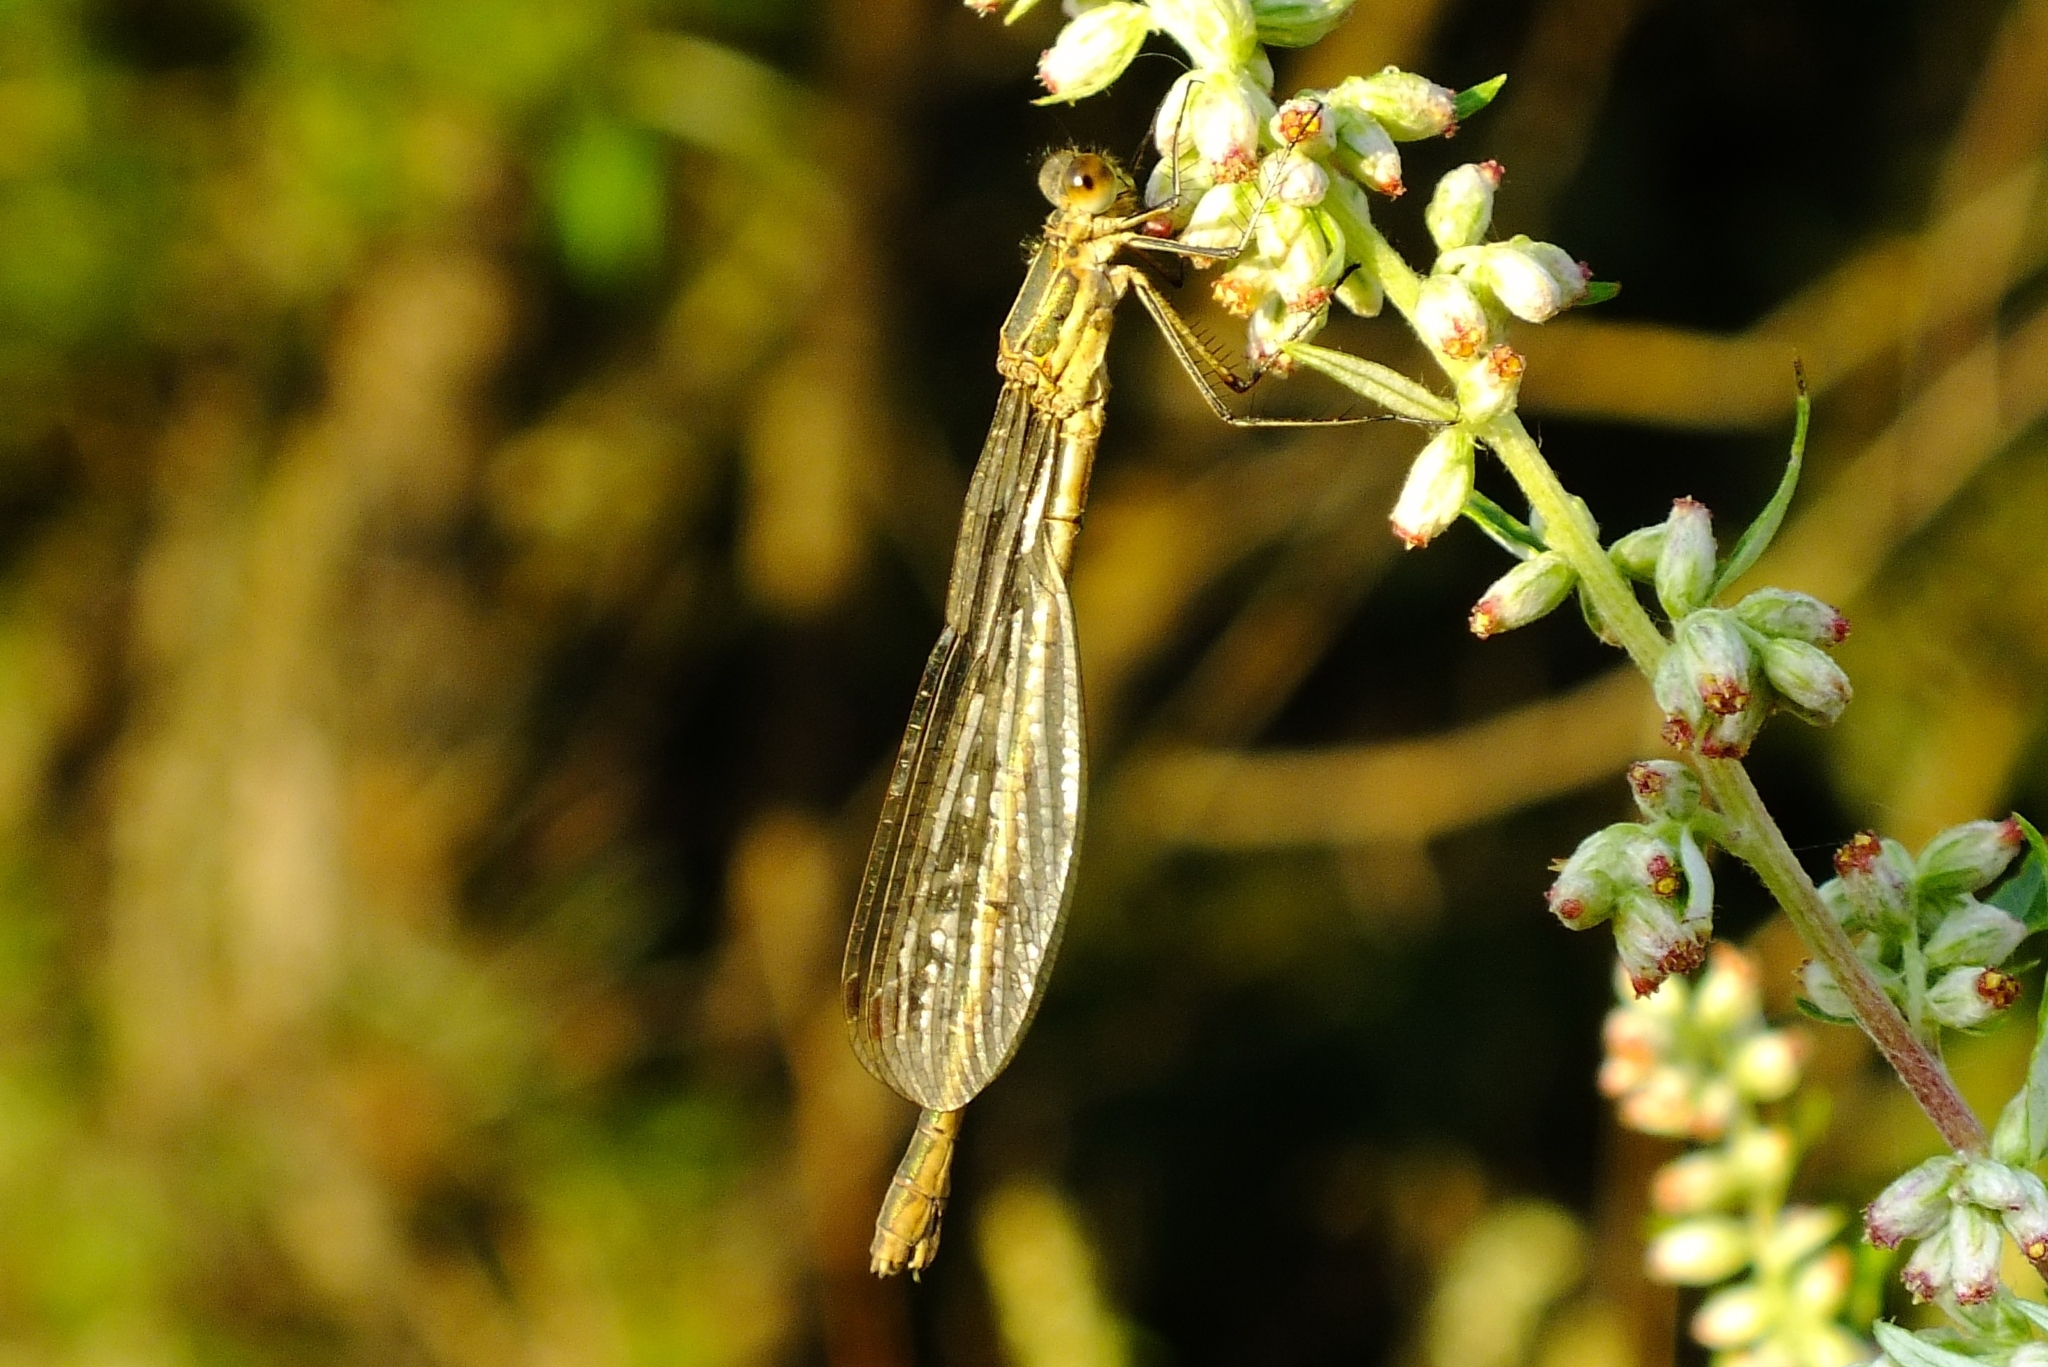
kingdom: Animalia
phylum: Arthropoda
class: Insecta
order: Odonata
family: Lestidae
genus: Lestes
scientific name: Lestes sponsa
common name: Common spreadwing
